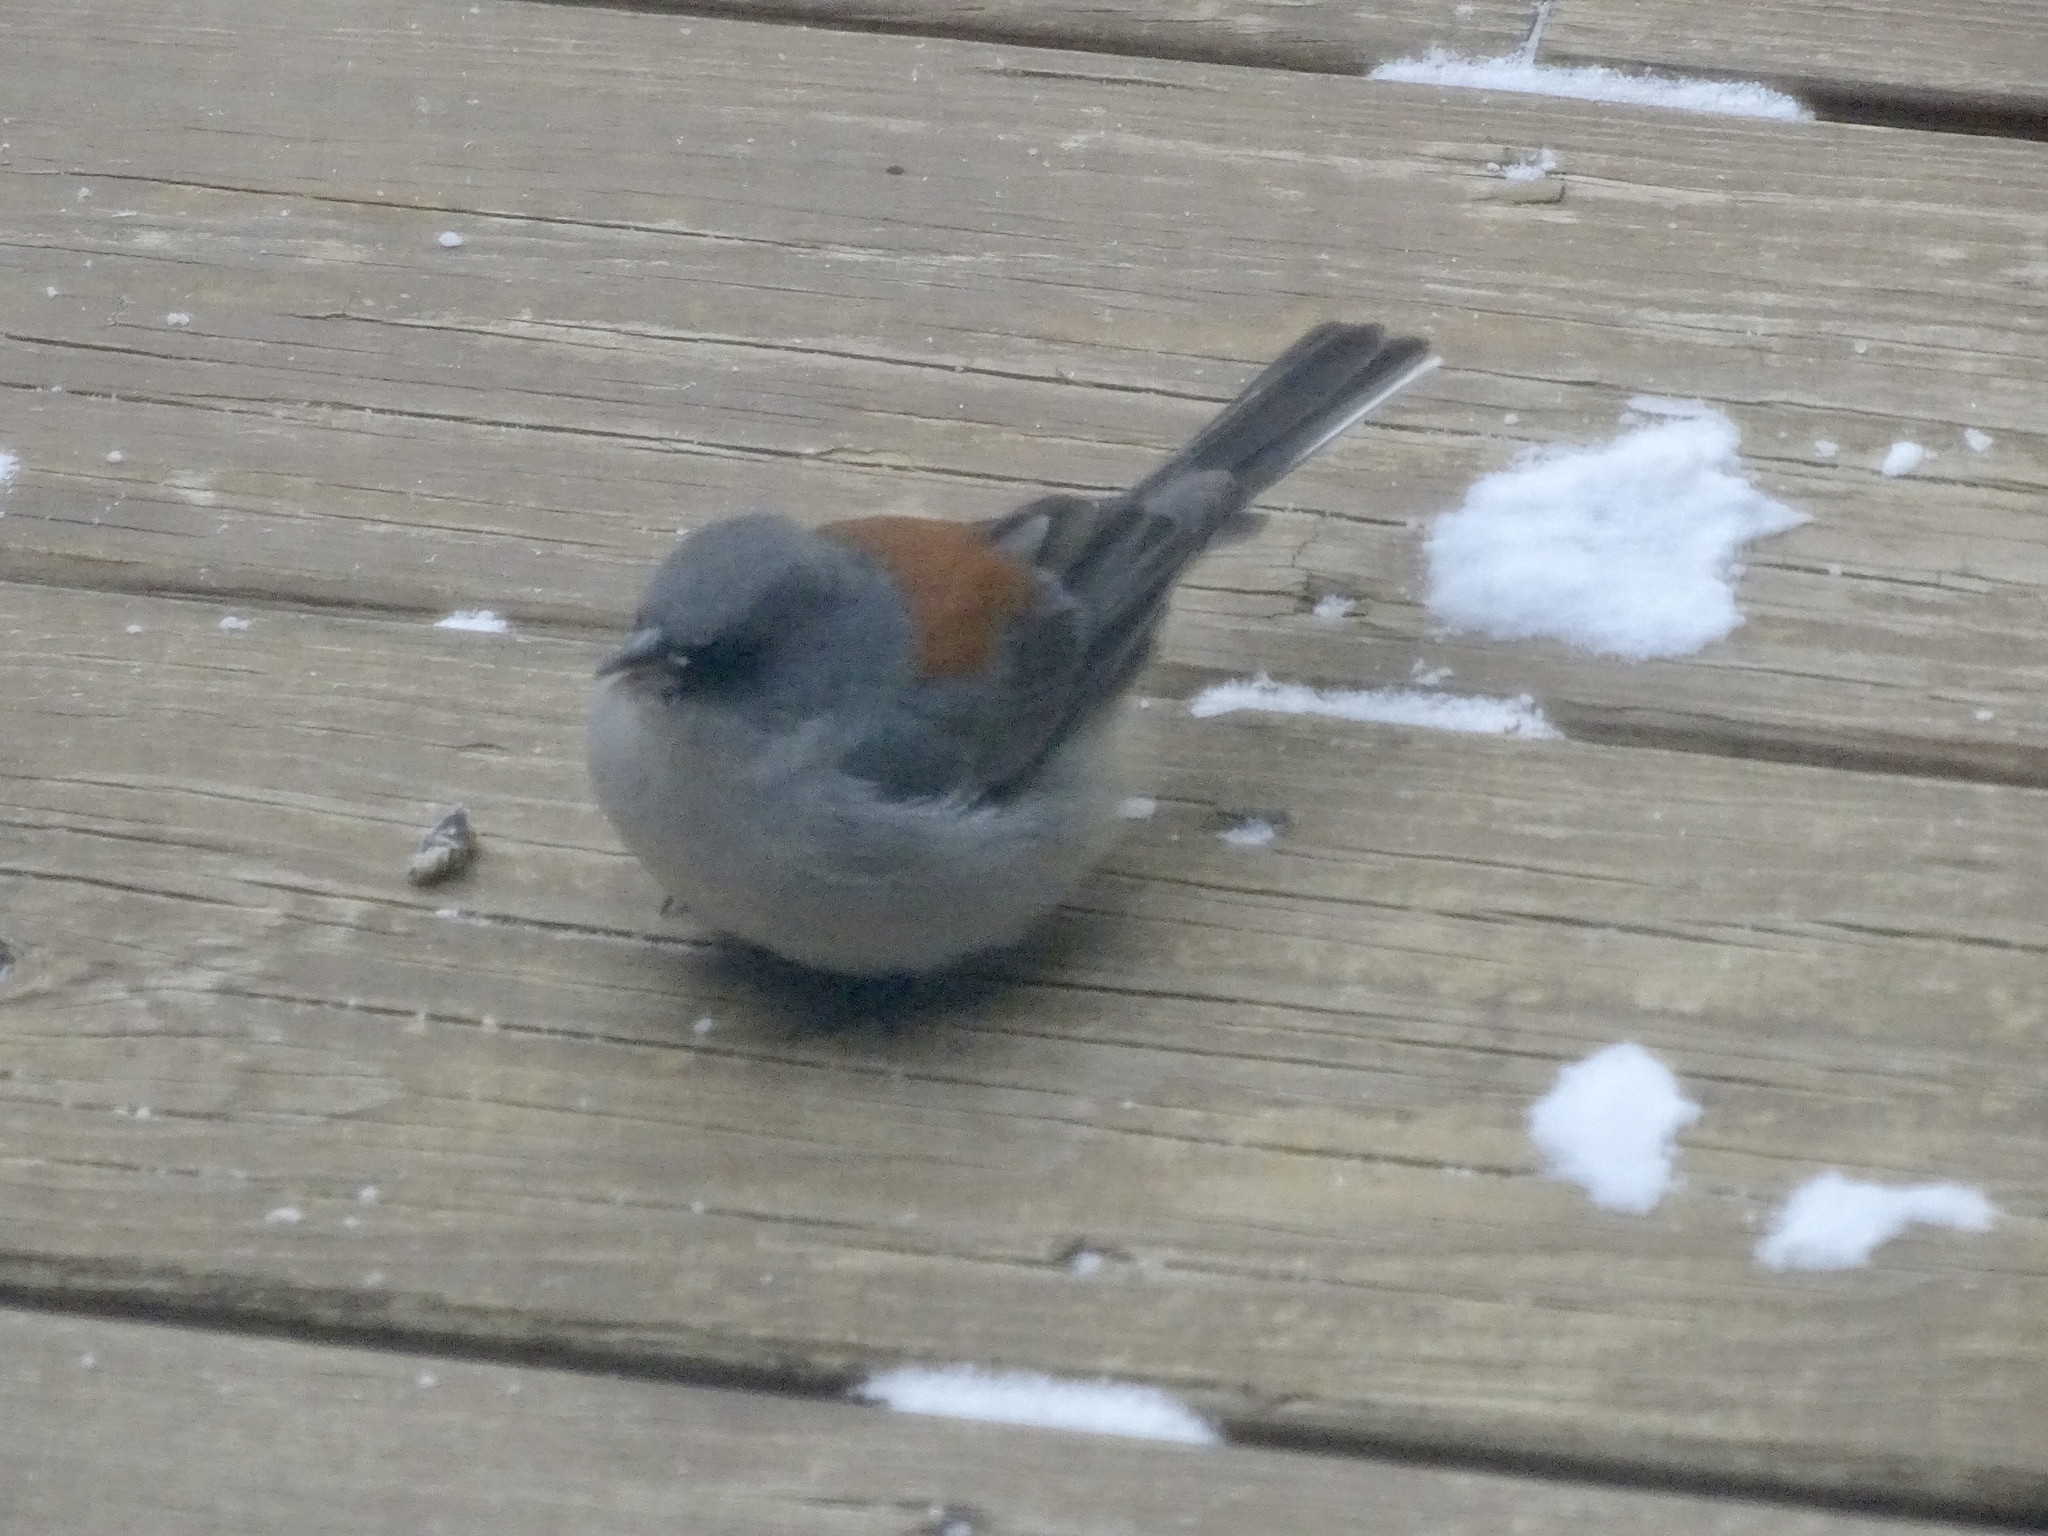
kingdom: Animalia
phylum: Chordata
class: Aves
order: Passeriformes
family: Passerellidae
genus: Junco
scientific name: Junco hyemalis
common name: Dark-eyed junco
